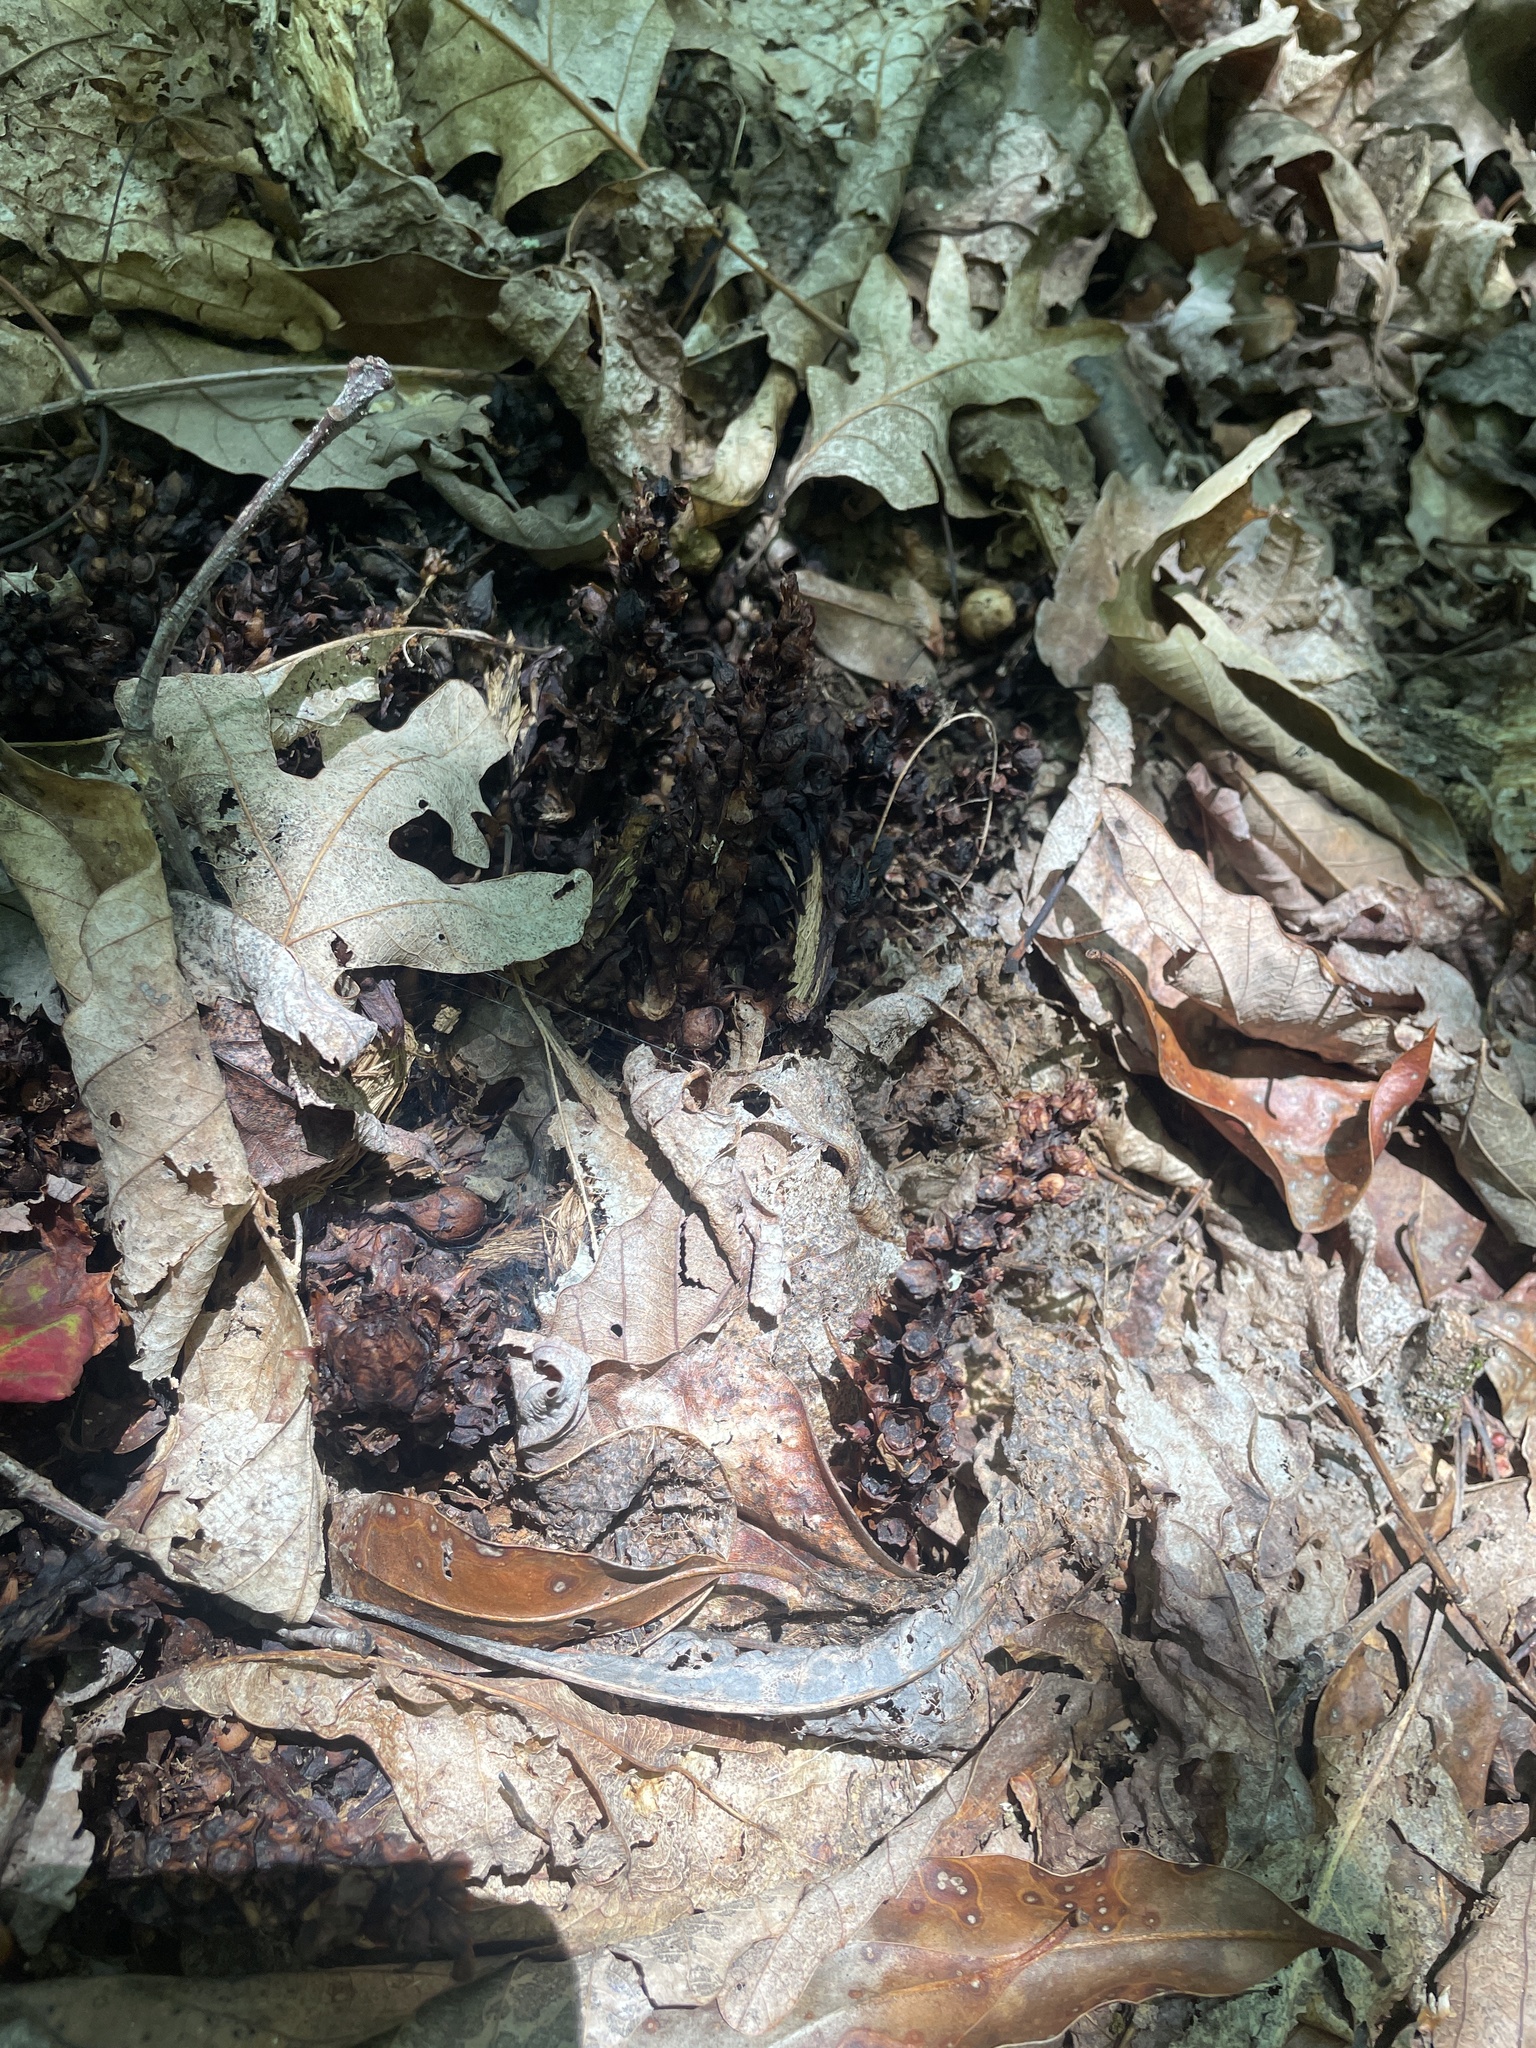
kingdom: Plantae
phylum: Tracheophyta
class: Magnoliopsida
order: Lamiales
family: Orobanchaceae
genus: Conopholis
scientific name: Conopholis americana
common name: American cancer-root
